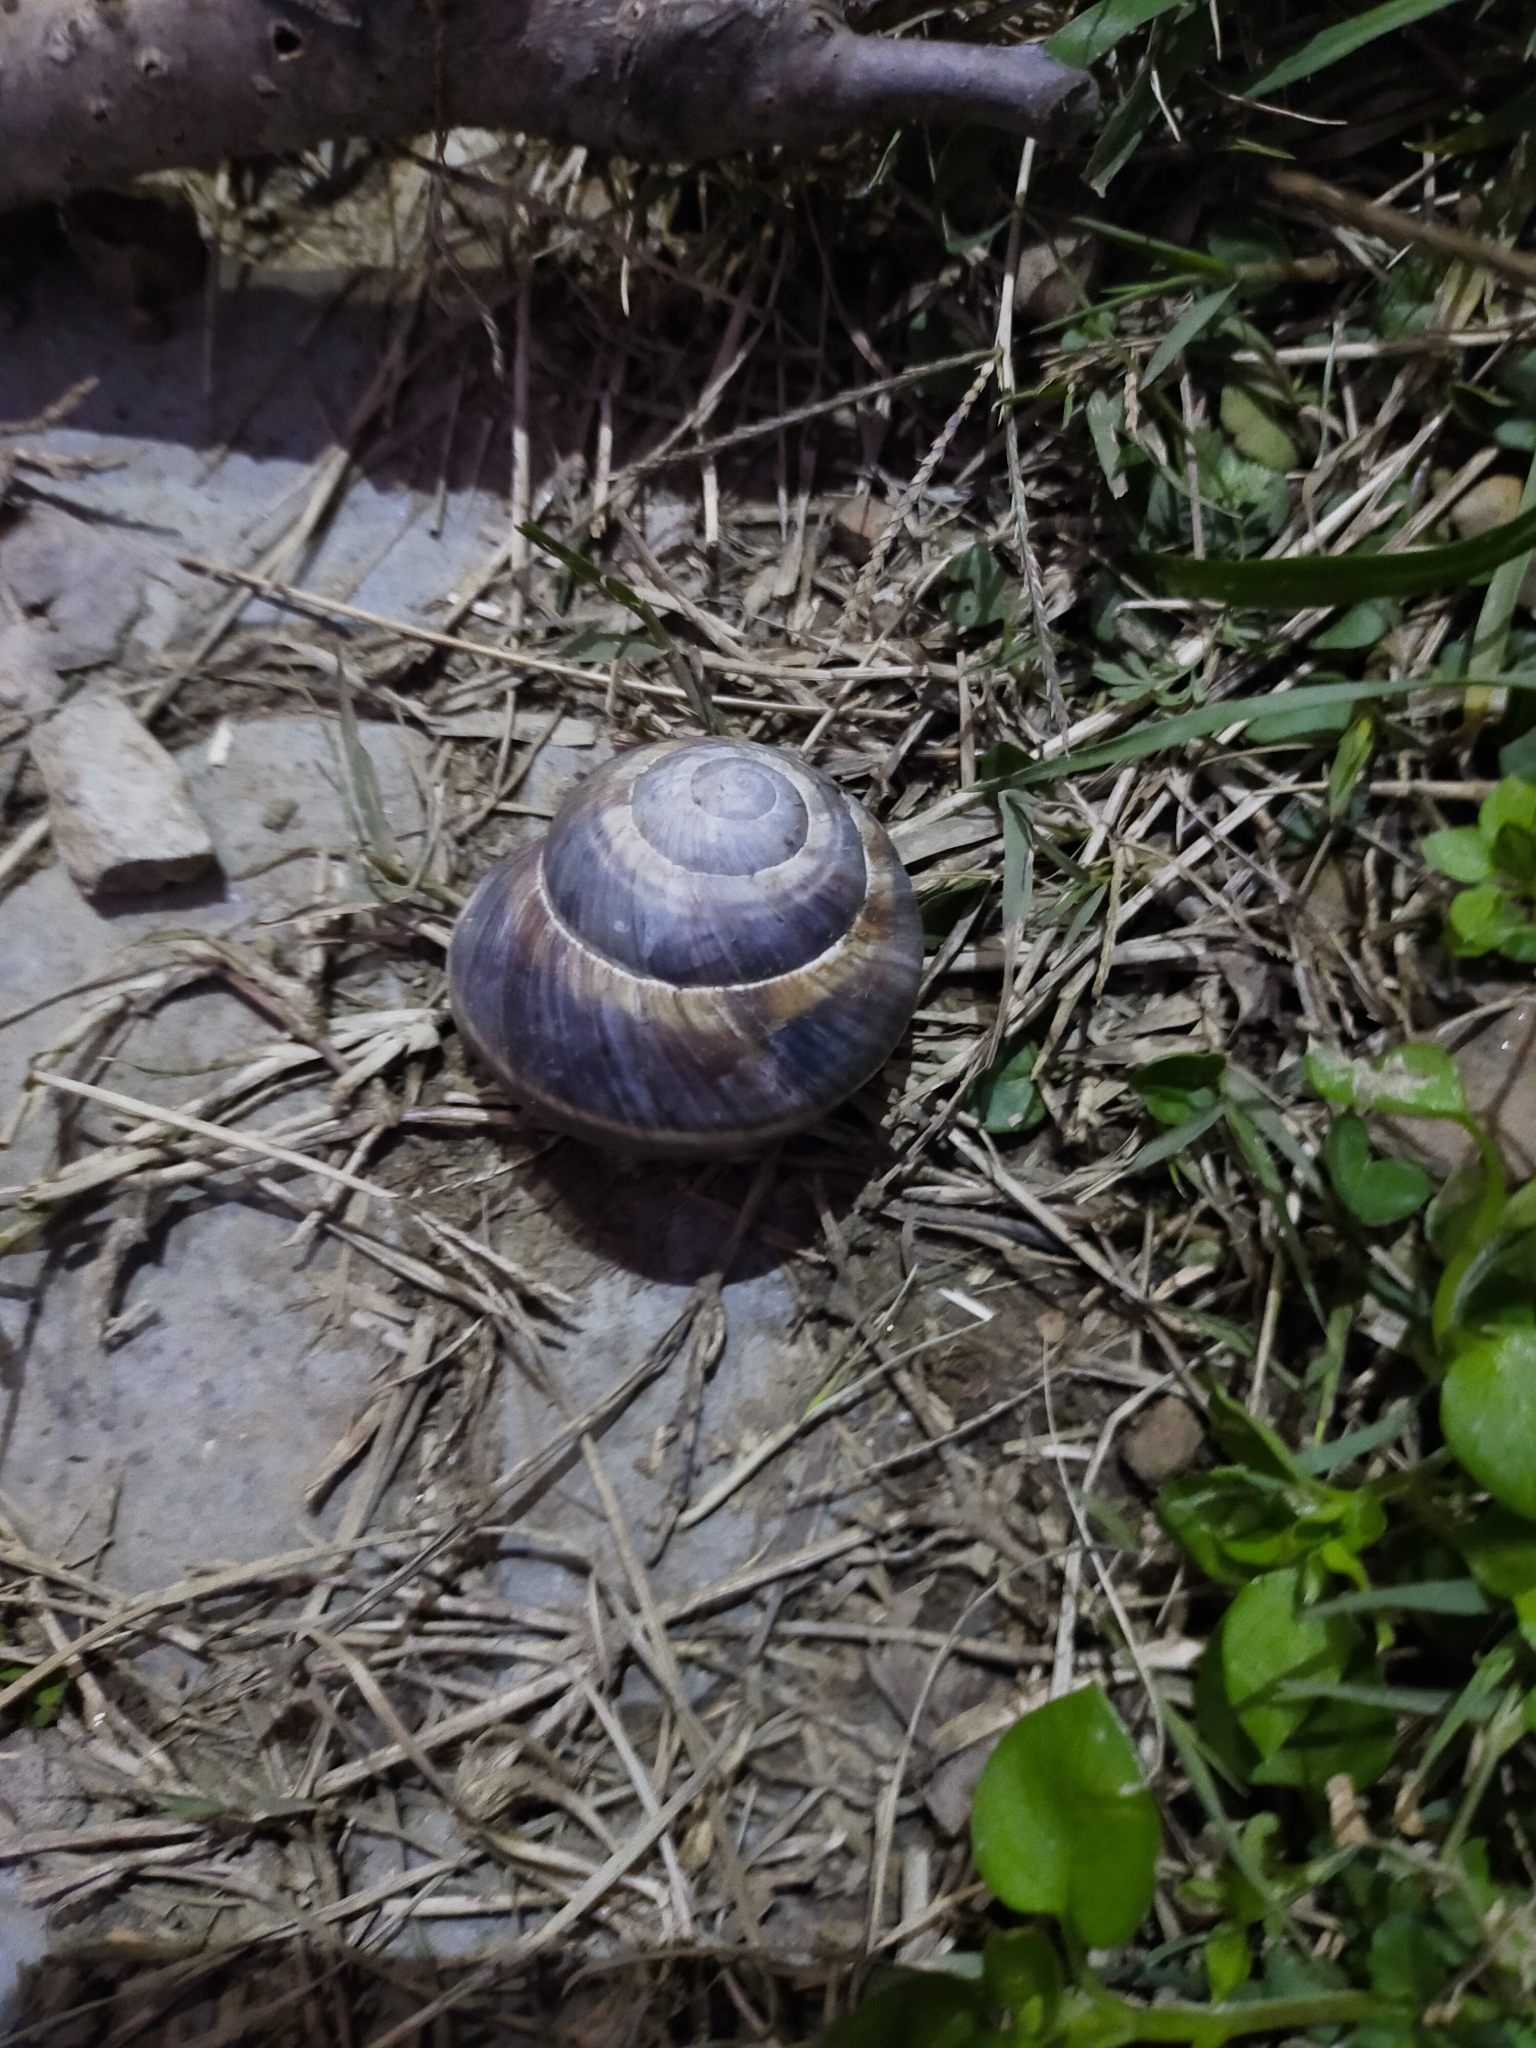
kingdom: Animalia
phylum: Mollusca
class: Gastropoda
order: Stylommatophora
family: Helicidae
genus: Helix
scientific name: Helix lucorum
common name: Turkish snail
